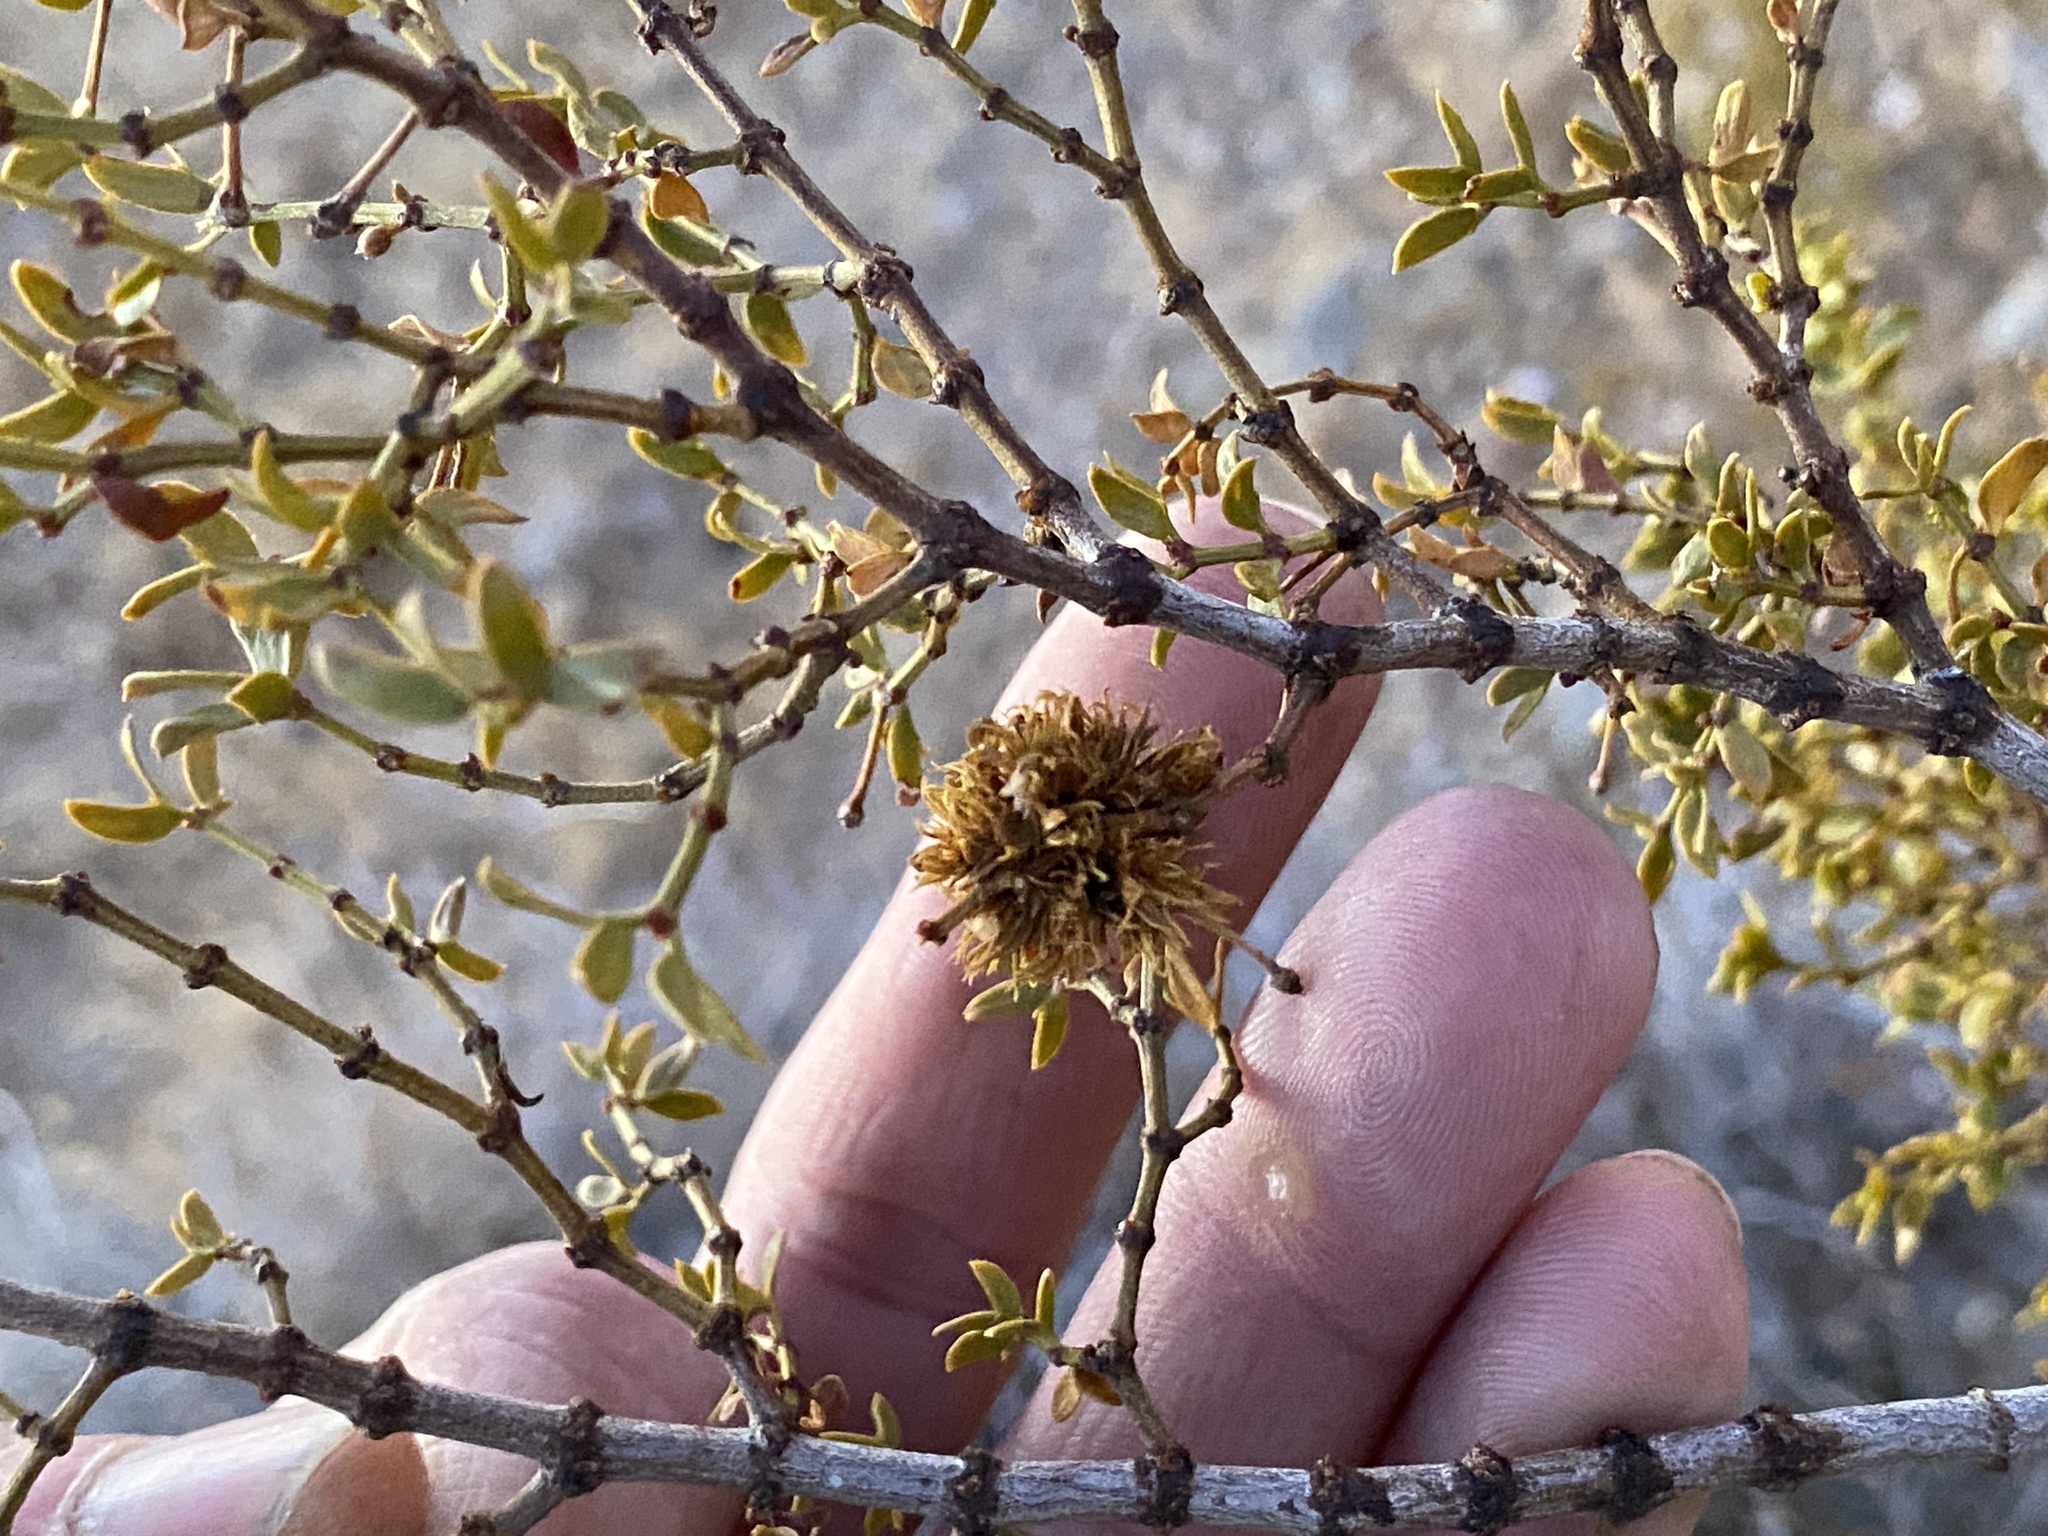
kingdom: Animalia
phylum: Arthropoda
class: Insecta
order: Diptera
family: Cecidomyiidae
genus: Asphondylia
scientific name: Asphondylia auripila
